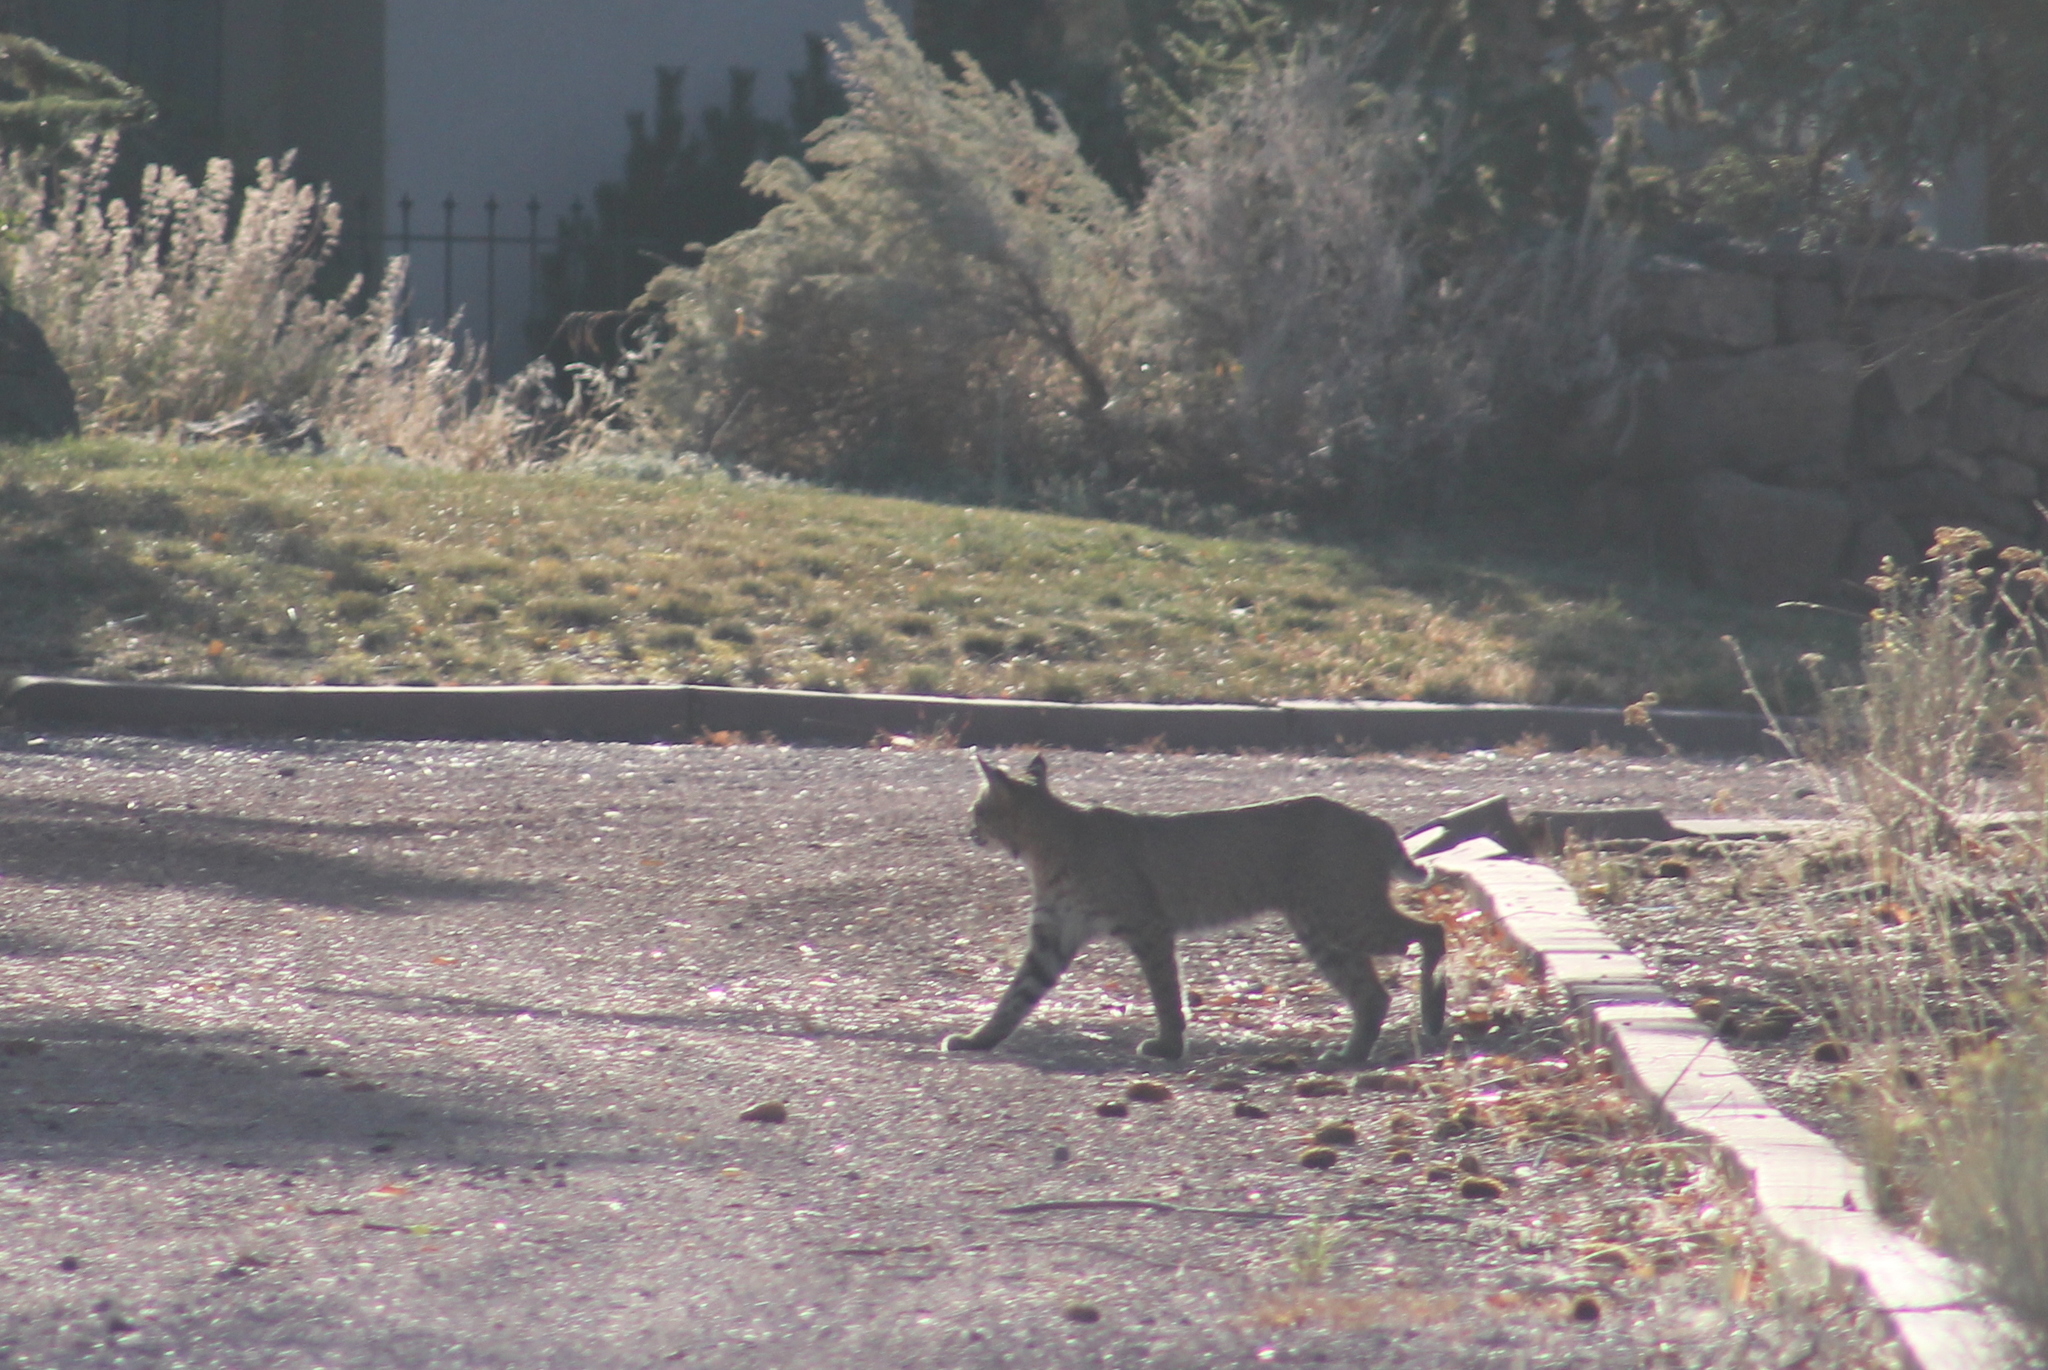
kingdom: Animalia
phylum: Chordata
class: Mammalia
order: Carnivora
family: Felidae
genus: Lynx
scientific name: Lynx rufus
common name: Bobcat
